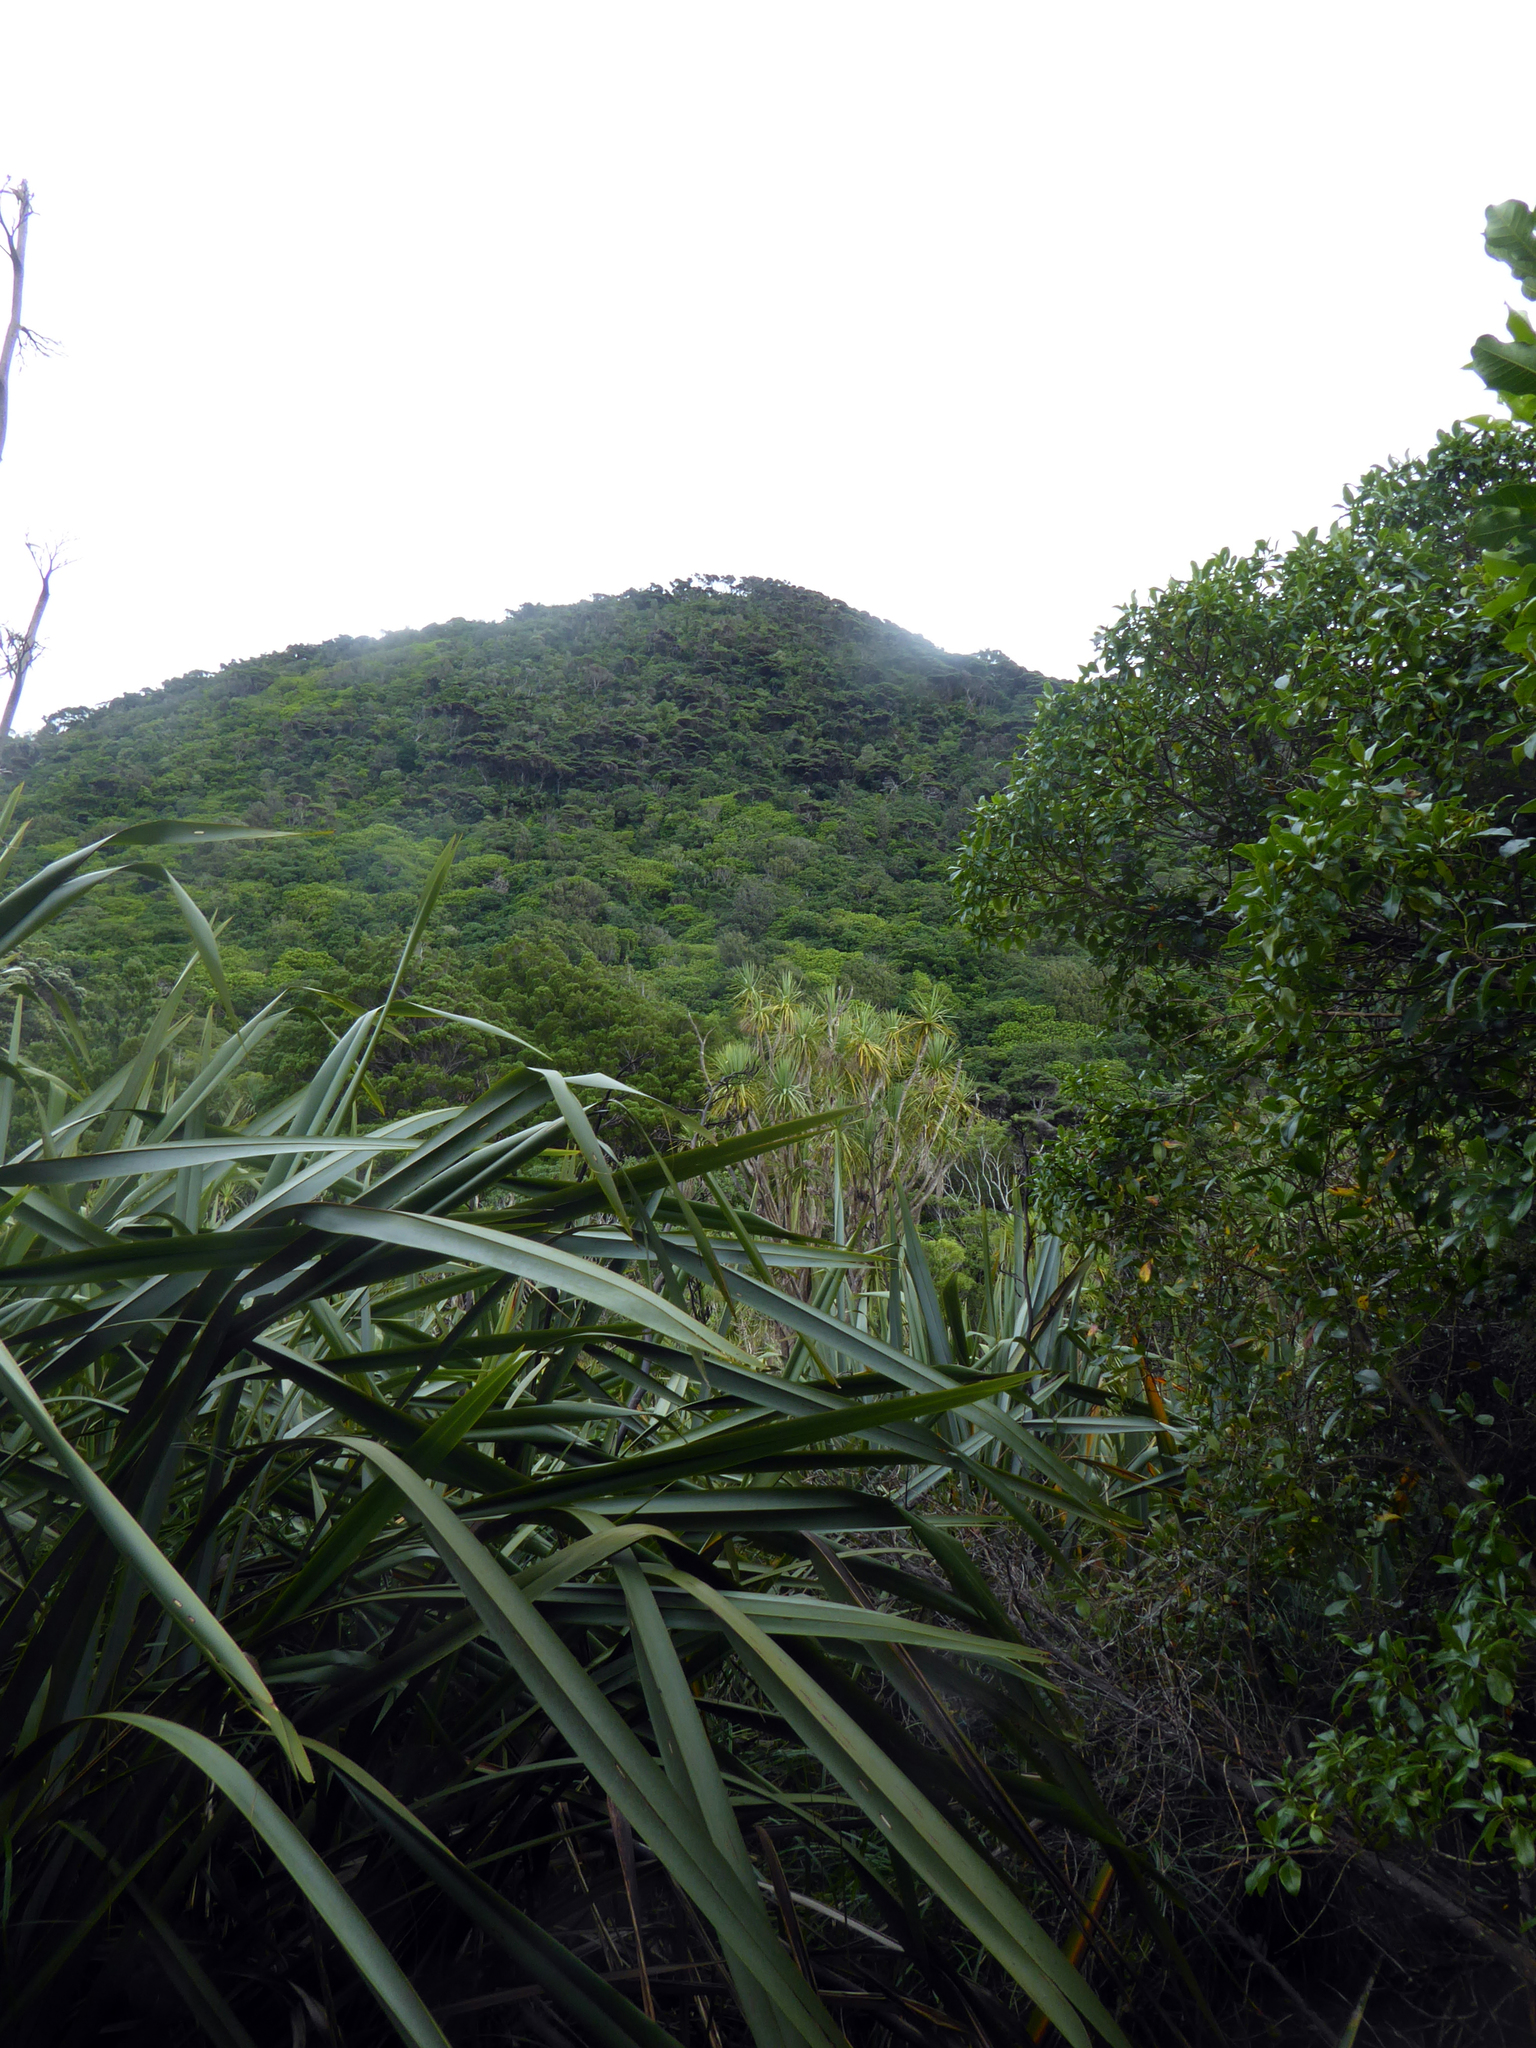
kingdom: Plantae
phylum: Tracheophyta
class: Liliopsida
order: Asparagales
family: Asphodelaceae
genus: Phormium
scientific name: Phormium tenax
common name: New zealand flax
